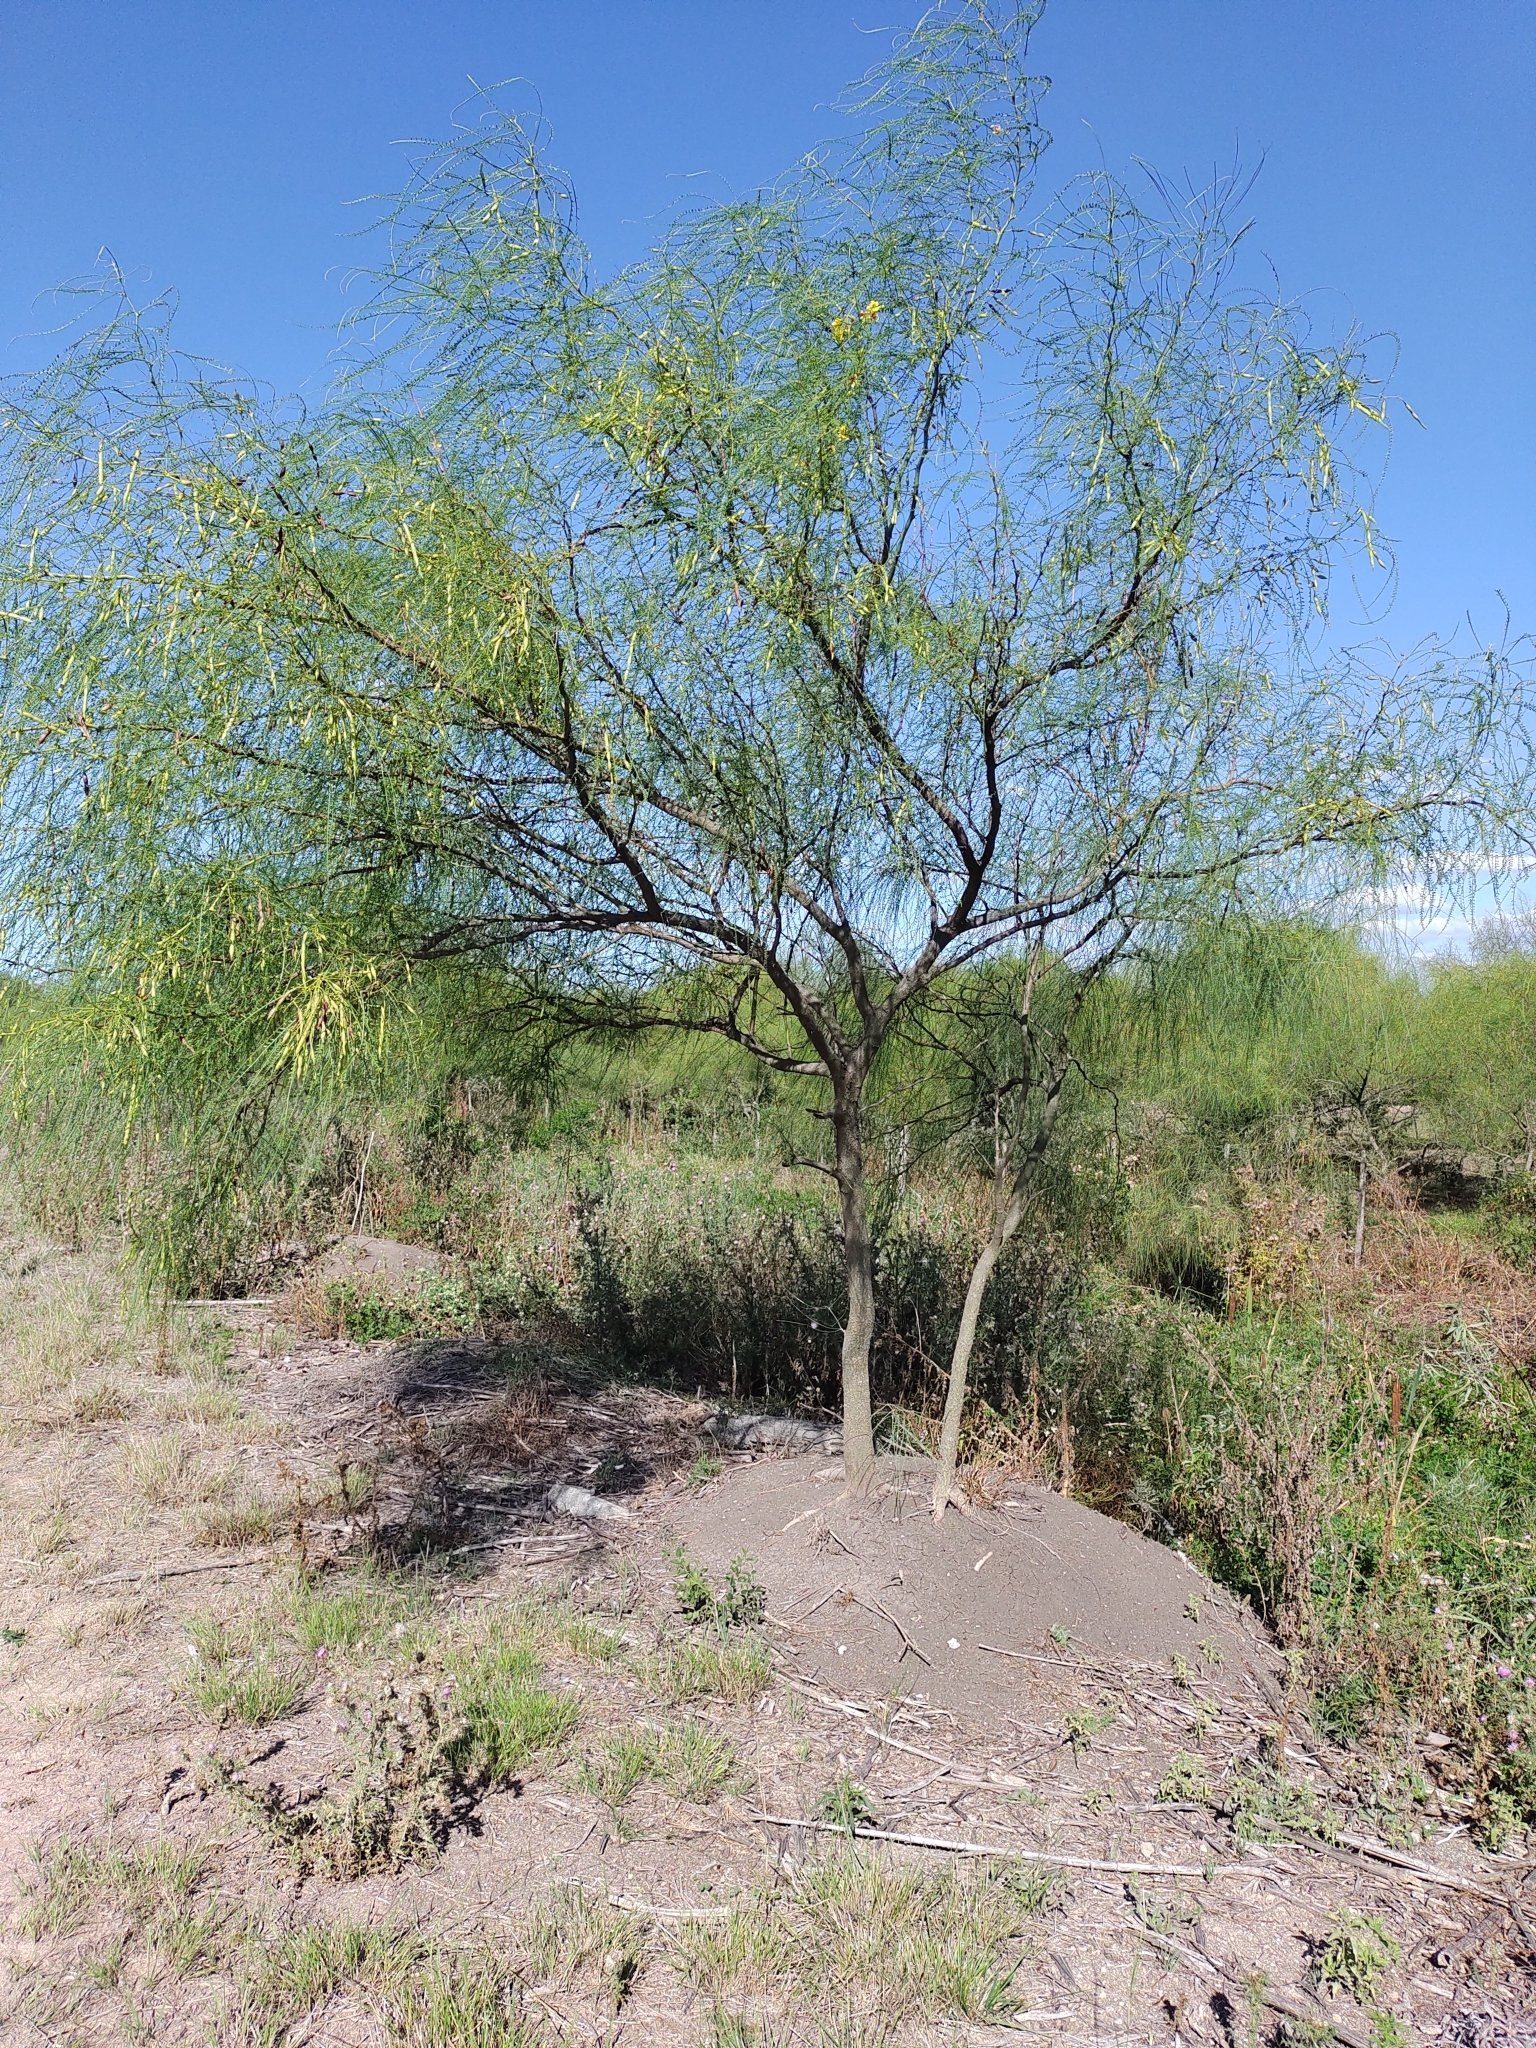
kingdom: Plantae
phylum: Tracheophyta
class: Magnoliopsida
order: Fabales
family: Fabaceae
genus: Parkinsonia
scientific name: Parkinsonia aculeata
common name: Jerusalem thorn
